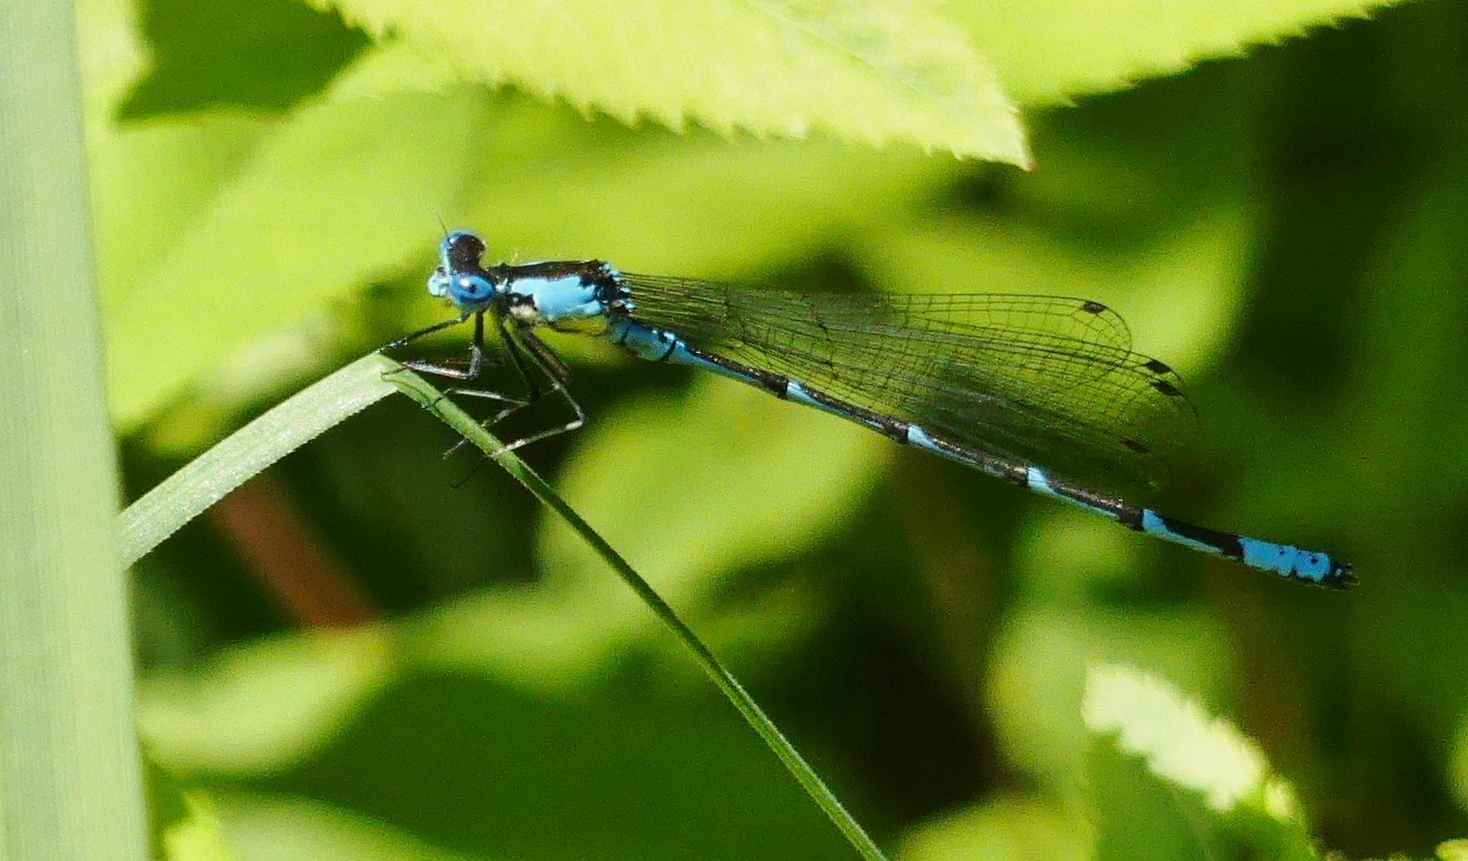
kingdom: Animalia
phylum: Arthropoda
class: Insecta
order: Odonata
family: Coenagrionidae
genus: Chromagrion
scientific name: Chromagrion conditum
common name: Aurora damsel
